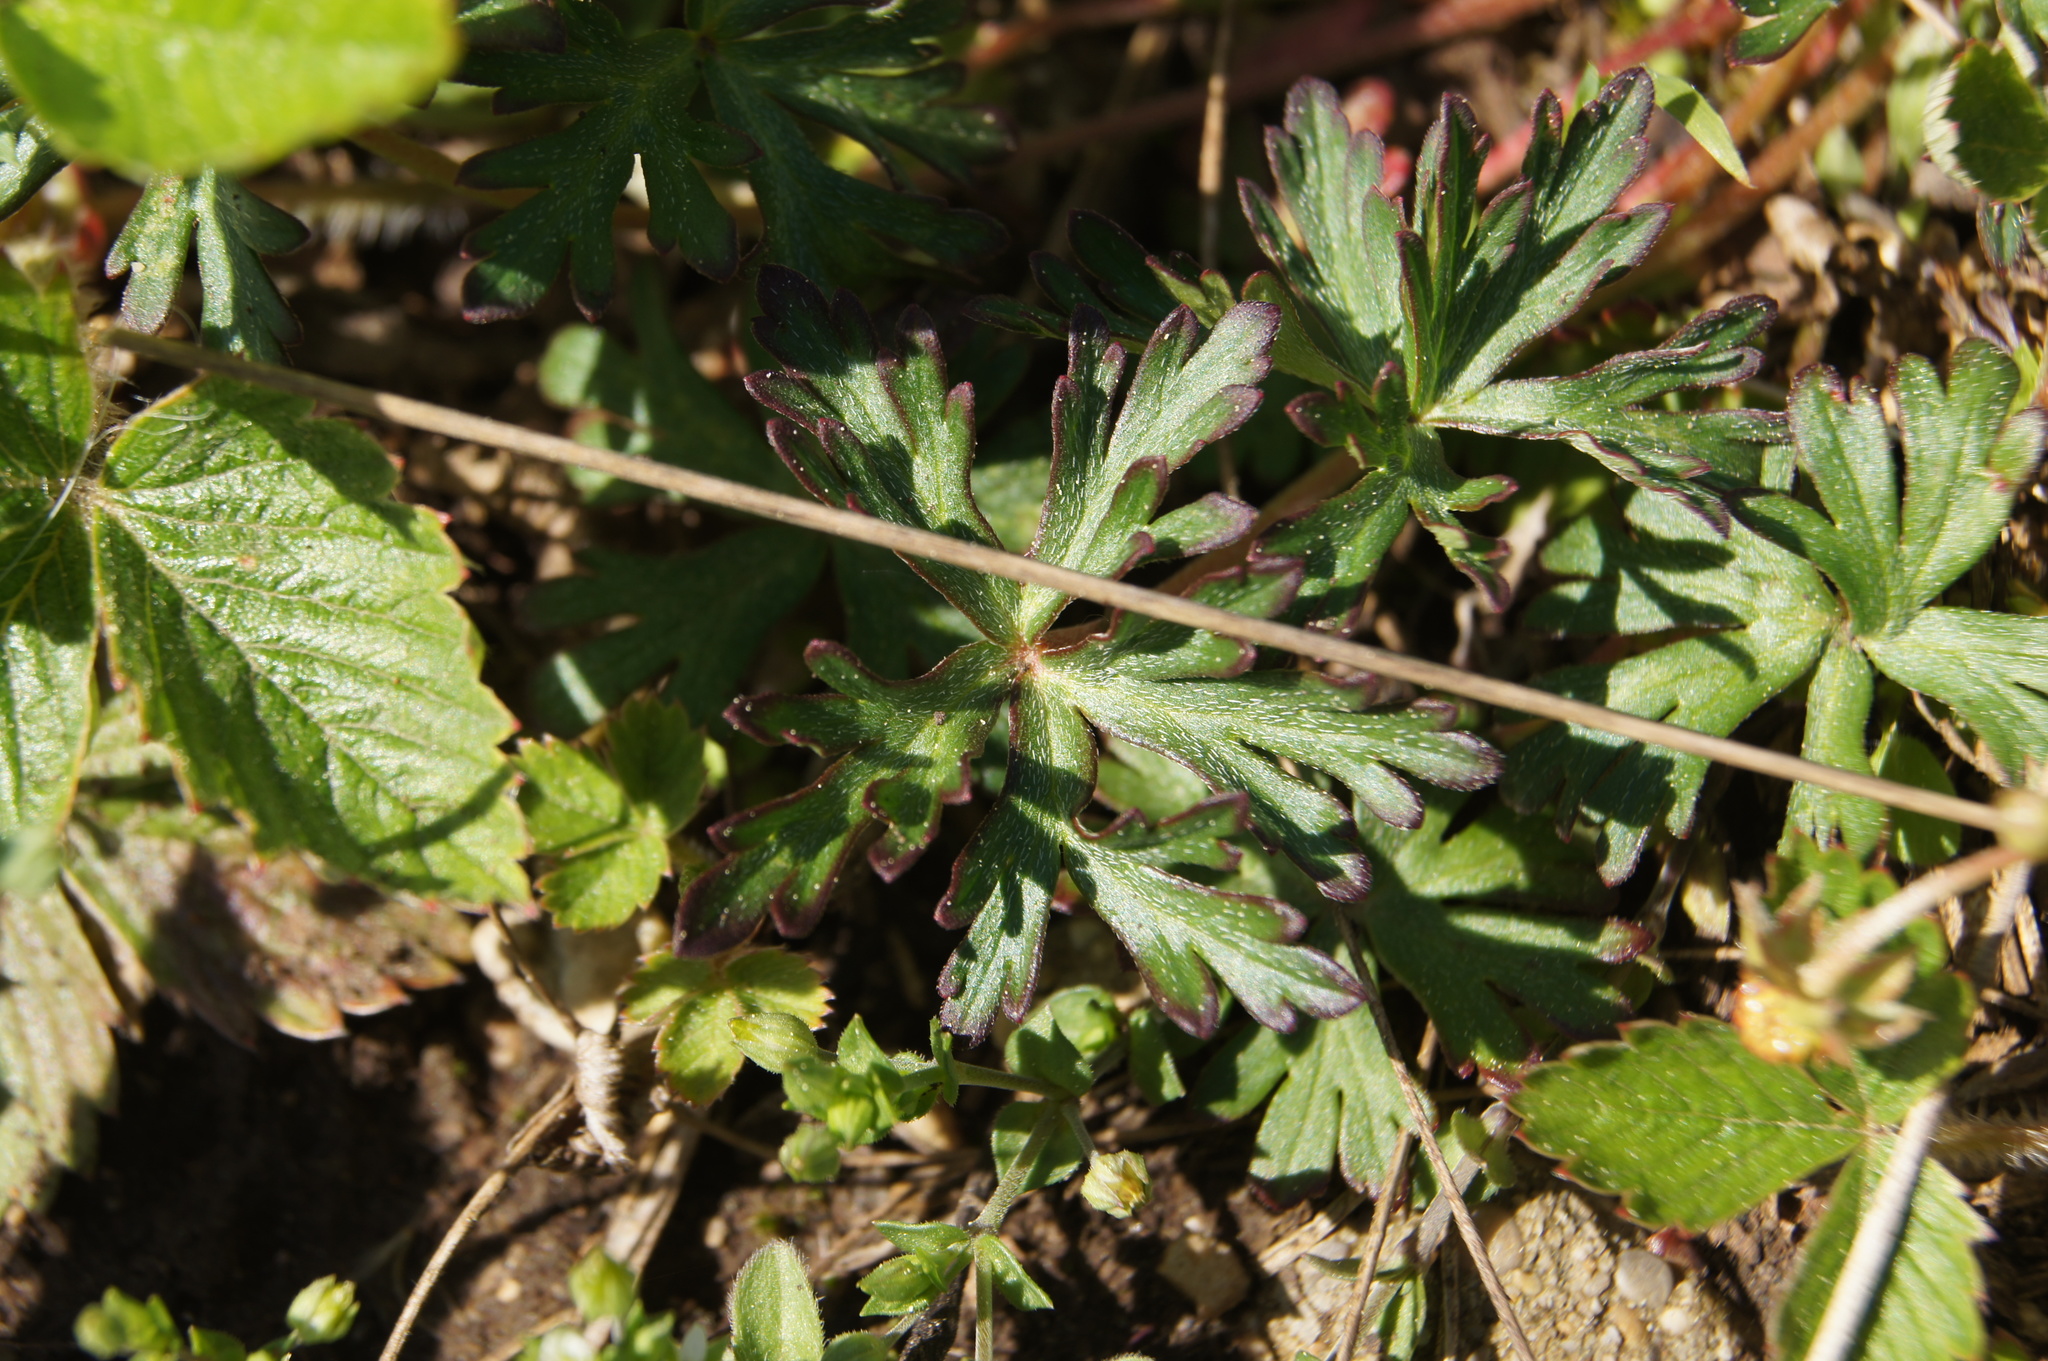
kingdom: Plantae
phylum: Tracheophyta
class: Magnoliopsida
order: Geraniales
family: Geraniaceae
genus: Geranium
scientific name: Geranium columbinum
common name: Long-stalked crane's-bill
